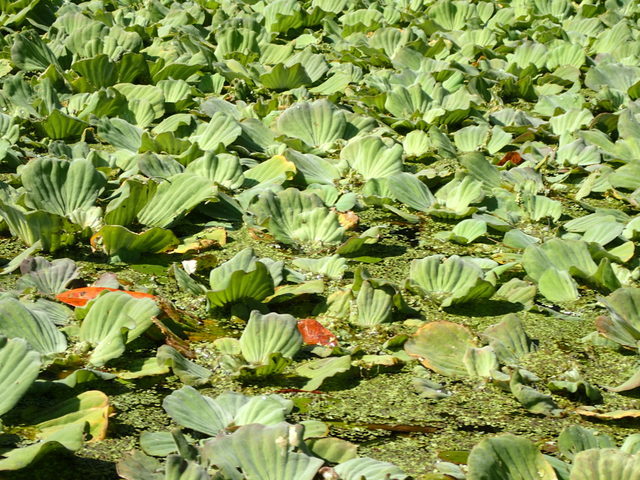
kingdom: Plantae
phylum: Tracheophyta
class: Liliopsida
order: Alismatales
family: Araceae
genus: Pistia
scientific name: Pistia stratiotes
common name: Water lettuce
